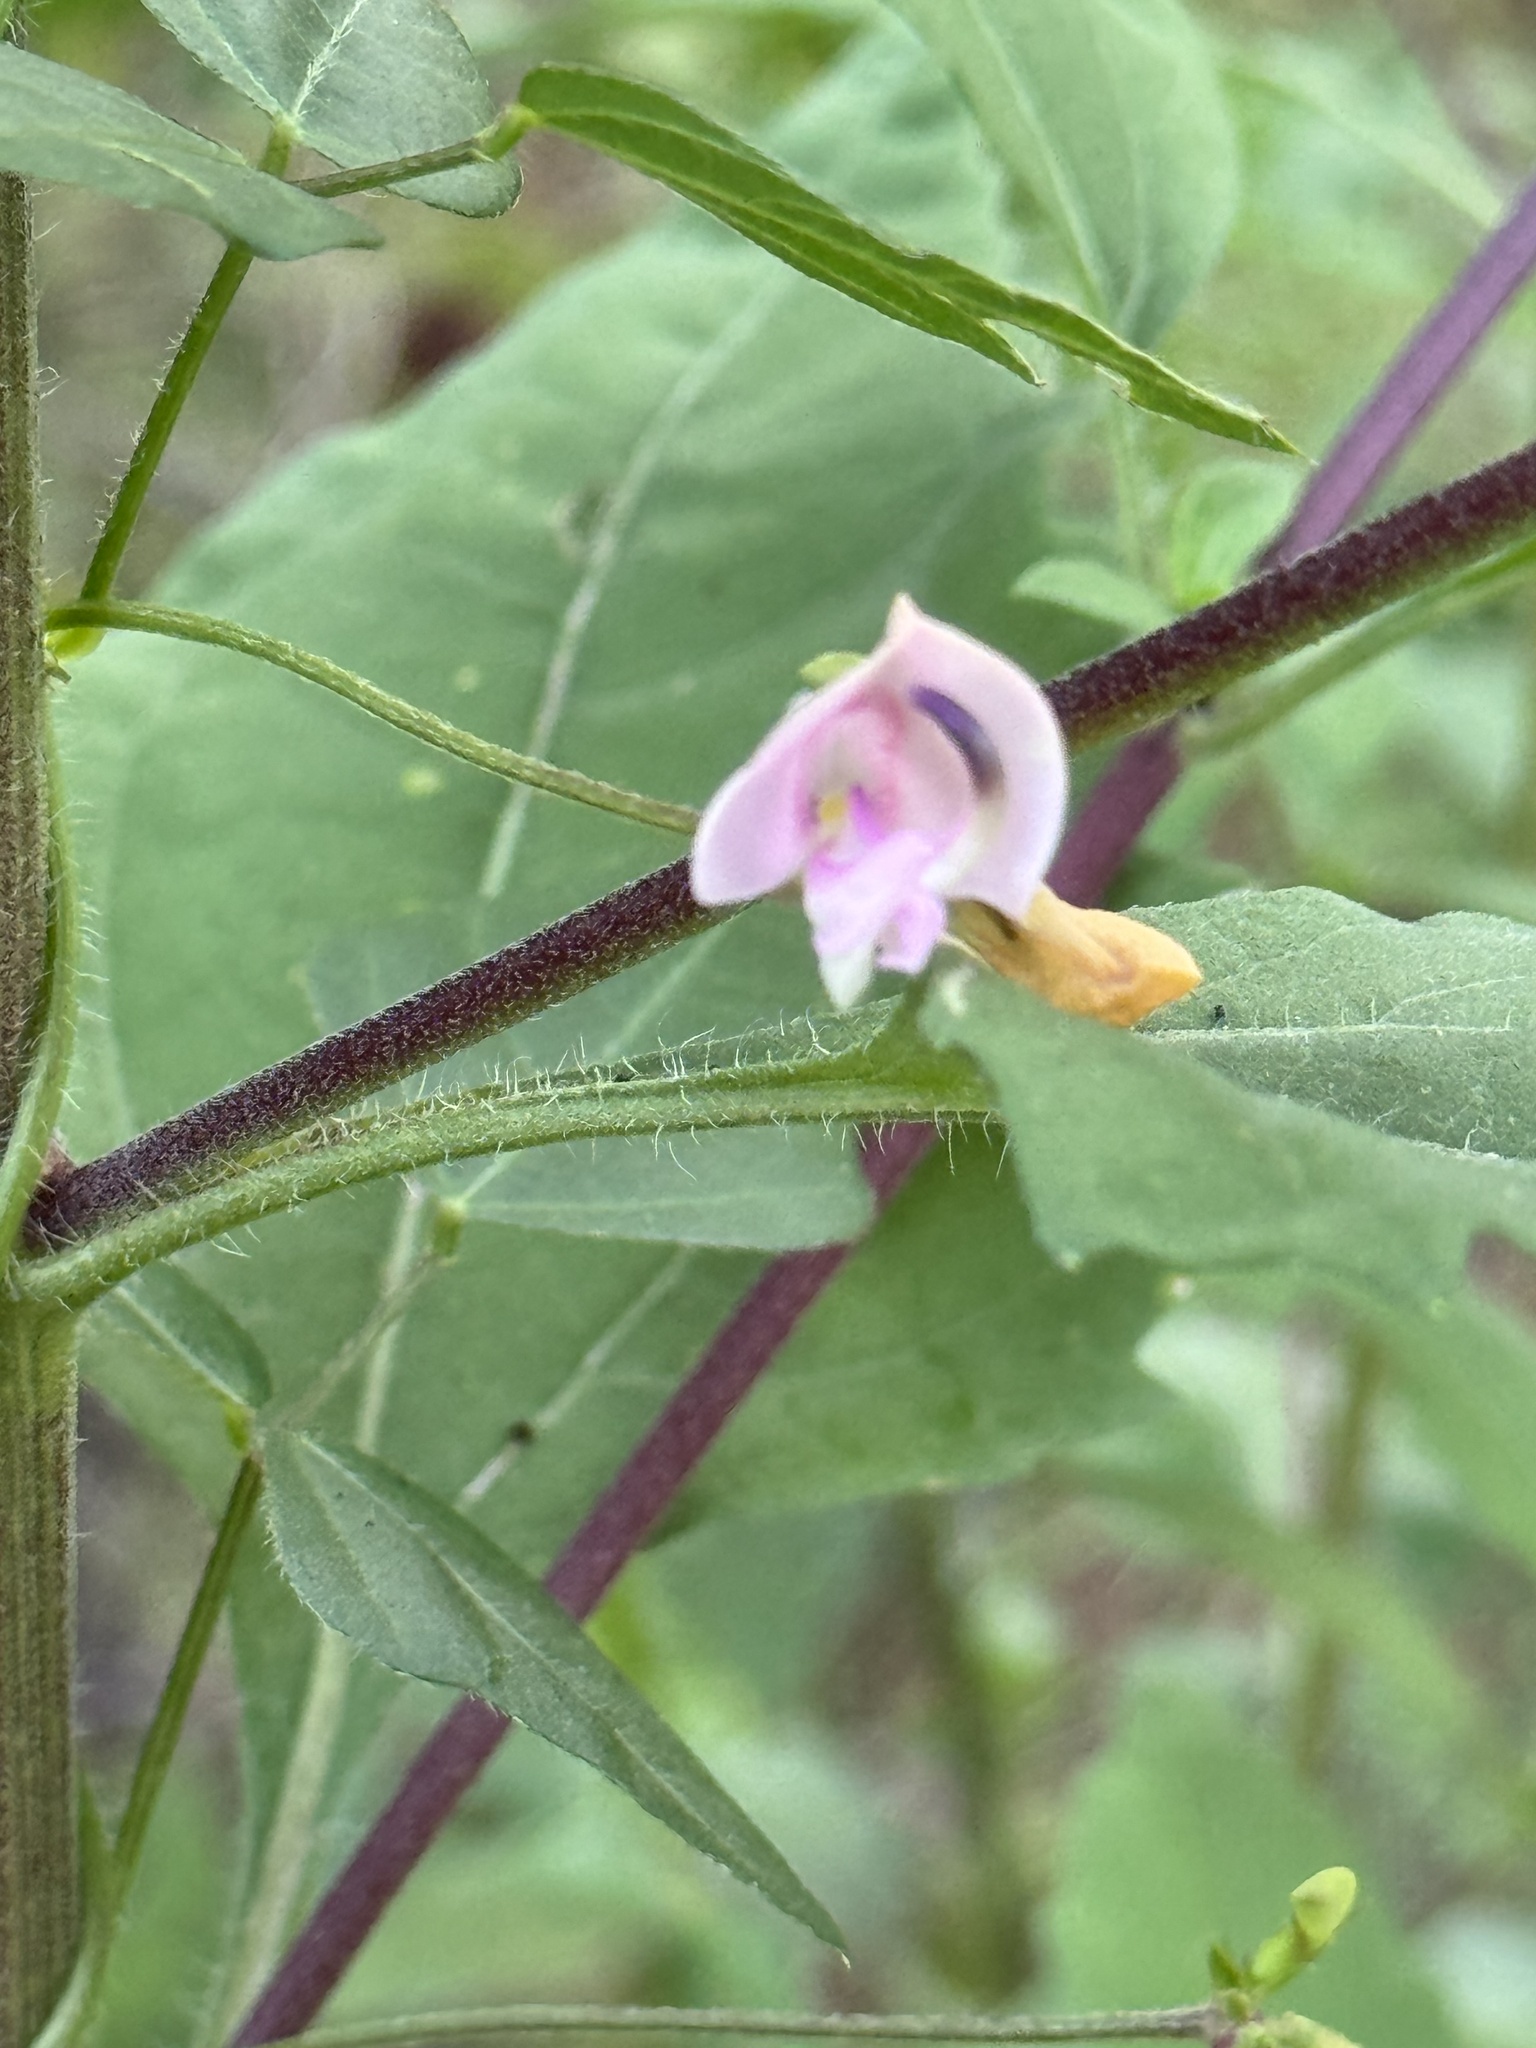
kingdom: Plantae
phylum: Tracheophyta
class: Magnoliopsida
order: Fabales
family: Fabaceae
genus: Strophostyles
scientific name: Strophostyles helvola
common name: Trailing wild bean
